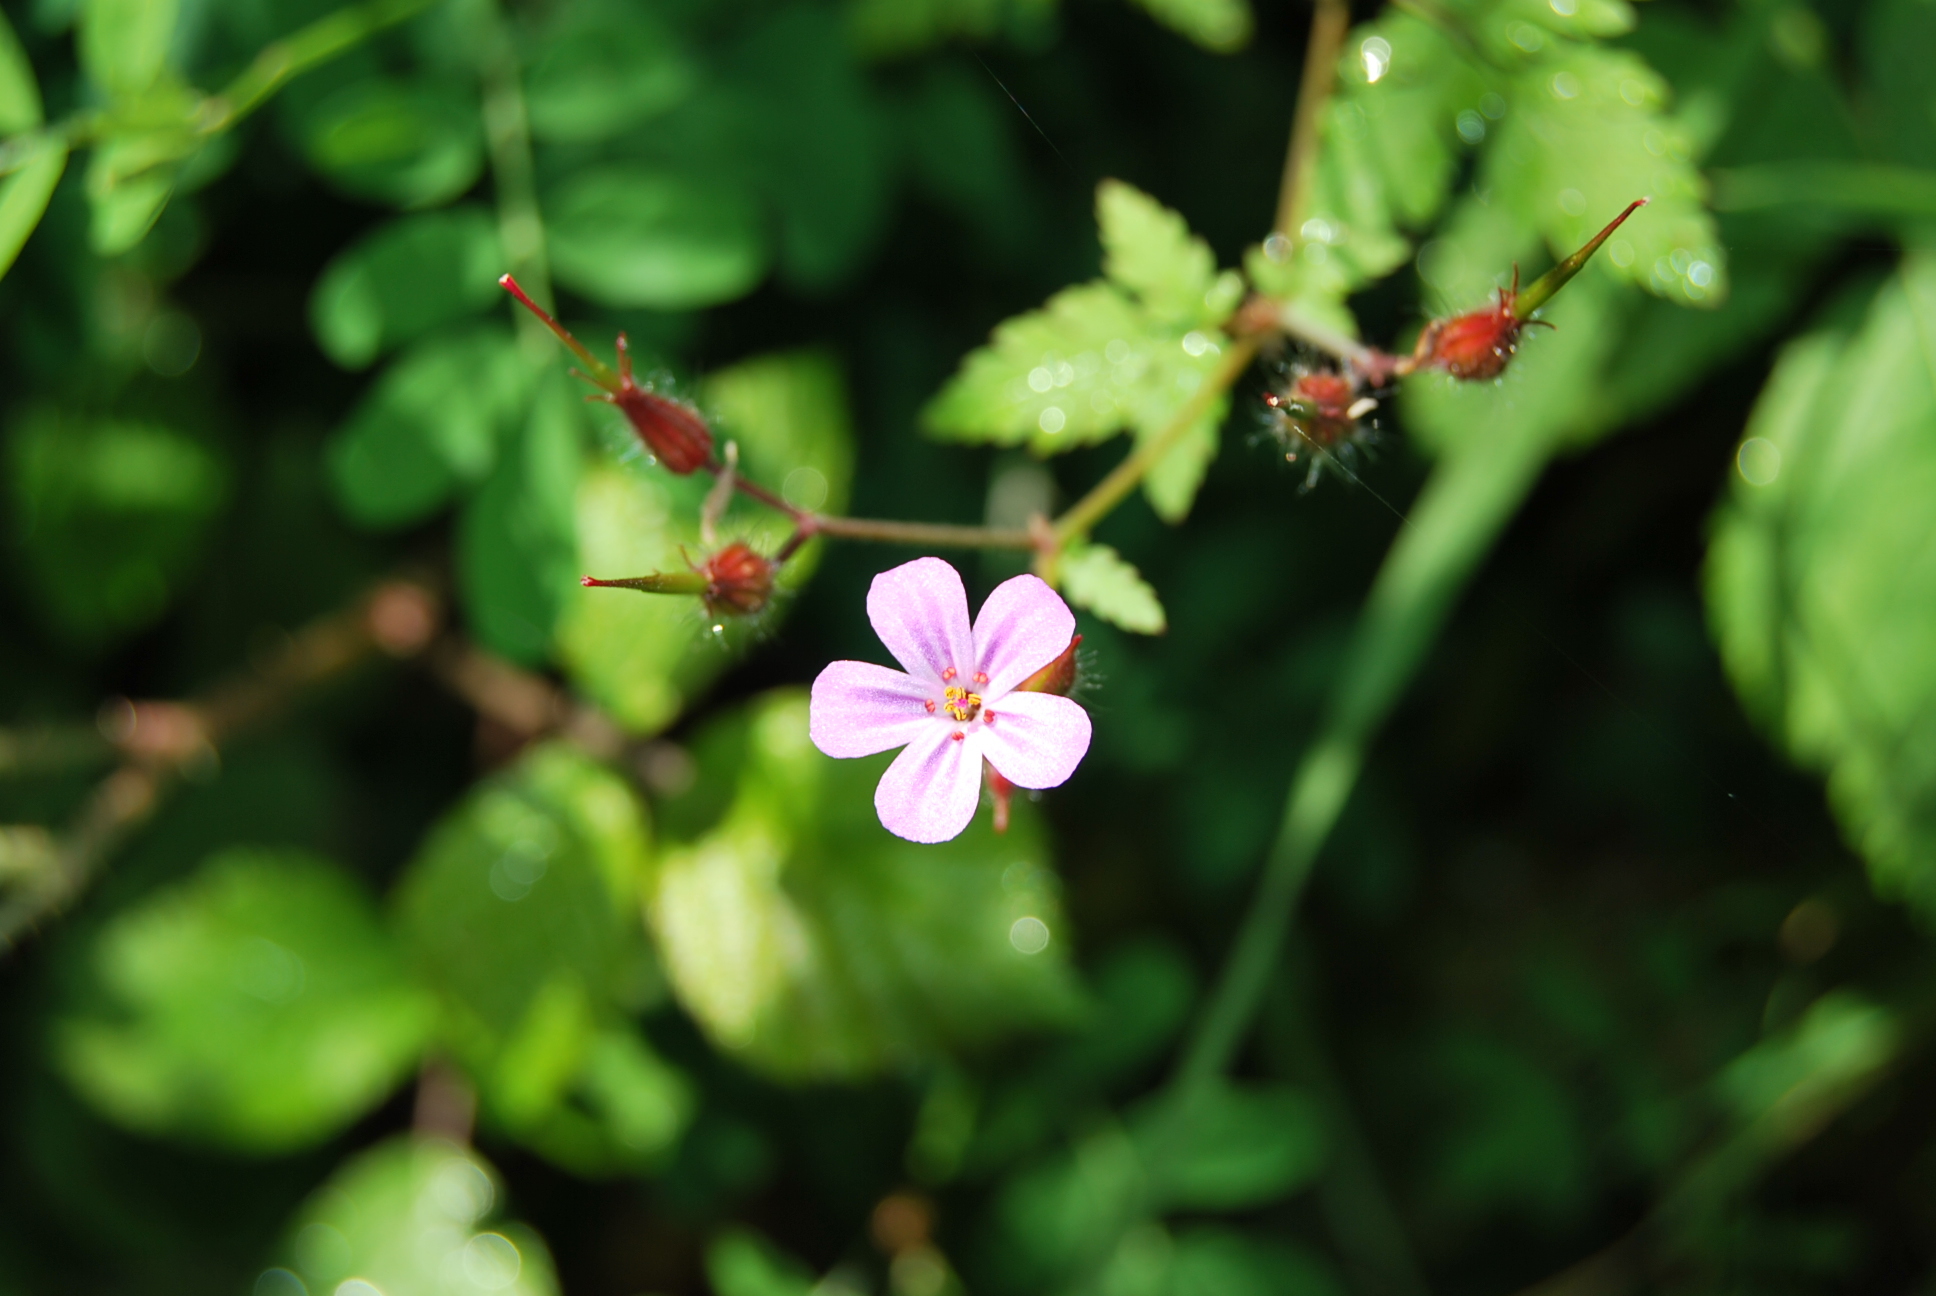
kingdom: Plantae
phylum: Tracheophyta
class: Magnoliopsida
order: Geraniales
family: Geraniaceae
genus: Geranium
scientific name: Geranium robertianum
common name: Herb-robert
